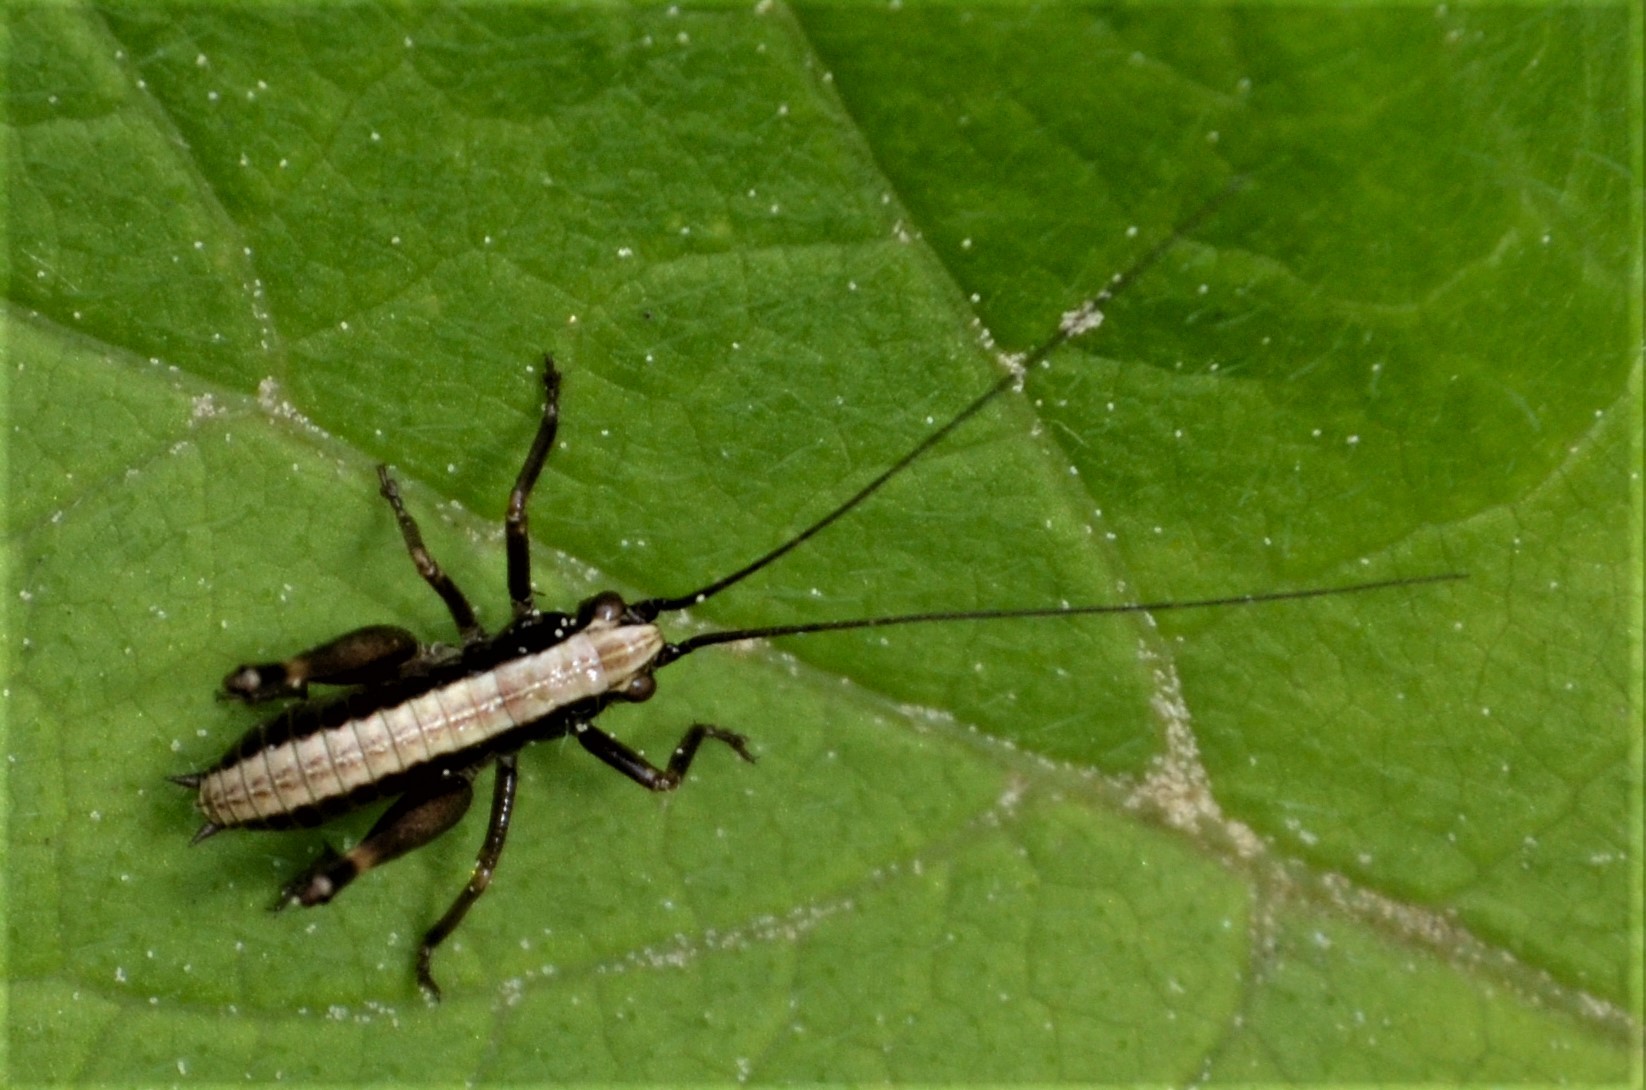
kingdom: Animalia
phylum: Arthropoda
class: Insecta
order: Orthoptera
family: Tettigoniidae
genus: Pholidoptera
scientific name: Pholidoptera griseoaptera
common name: Dark bush-cricket
